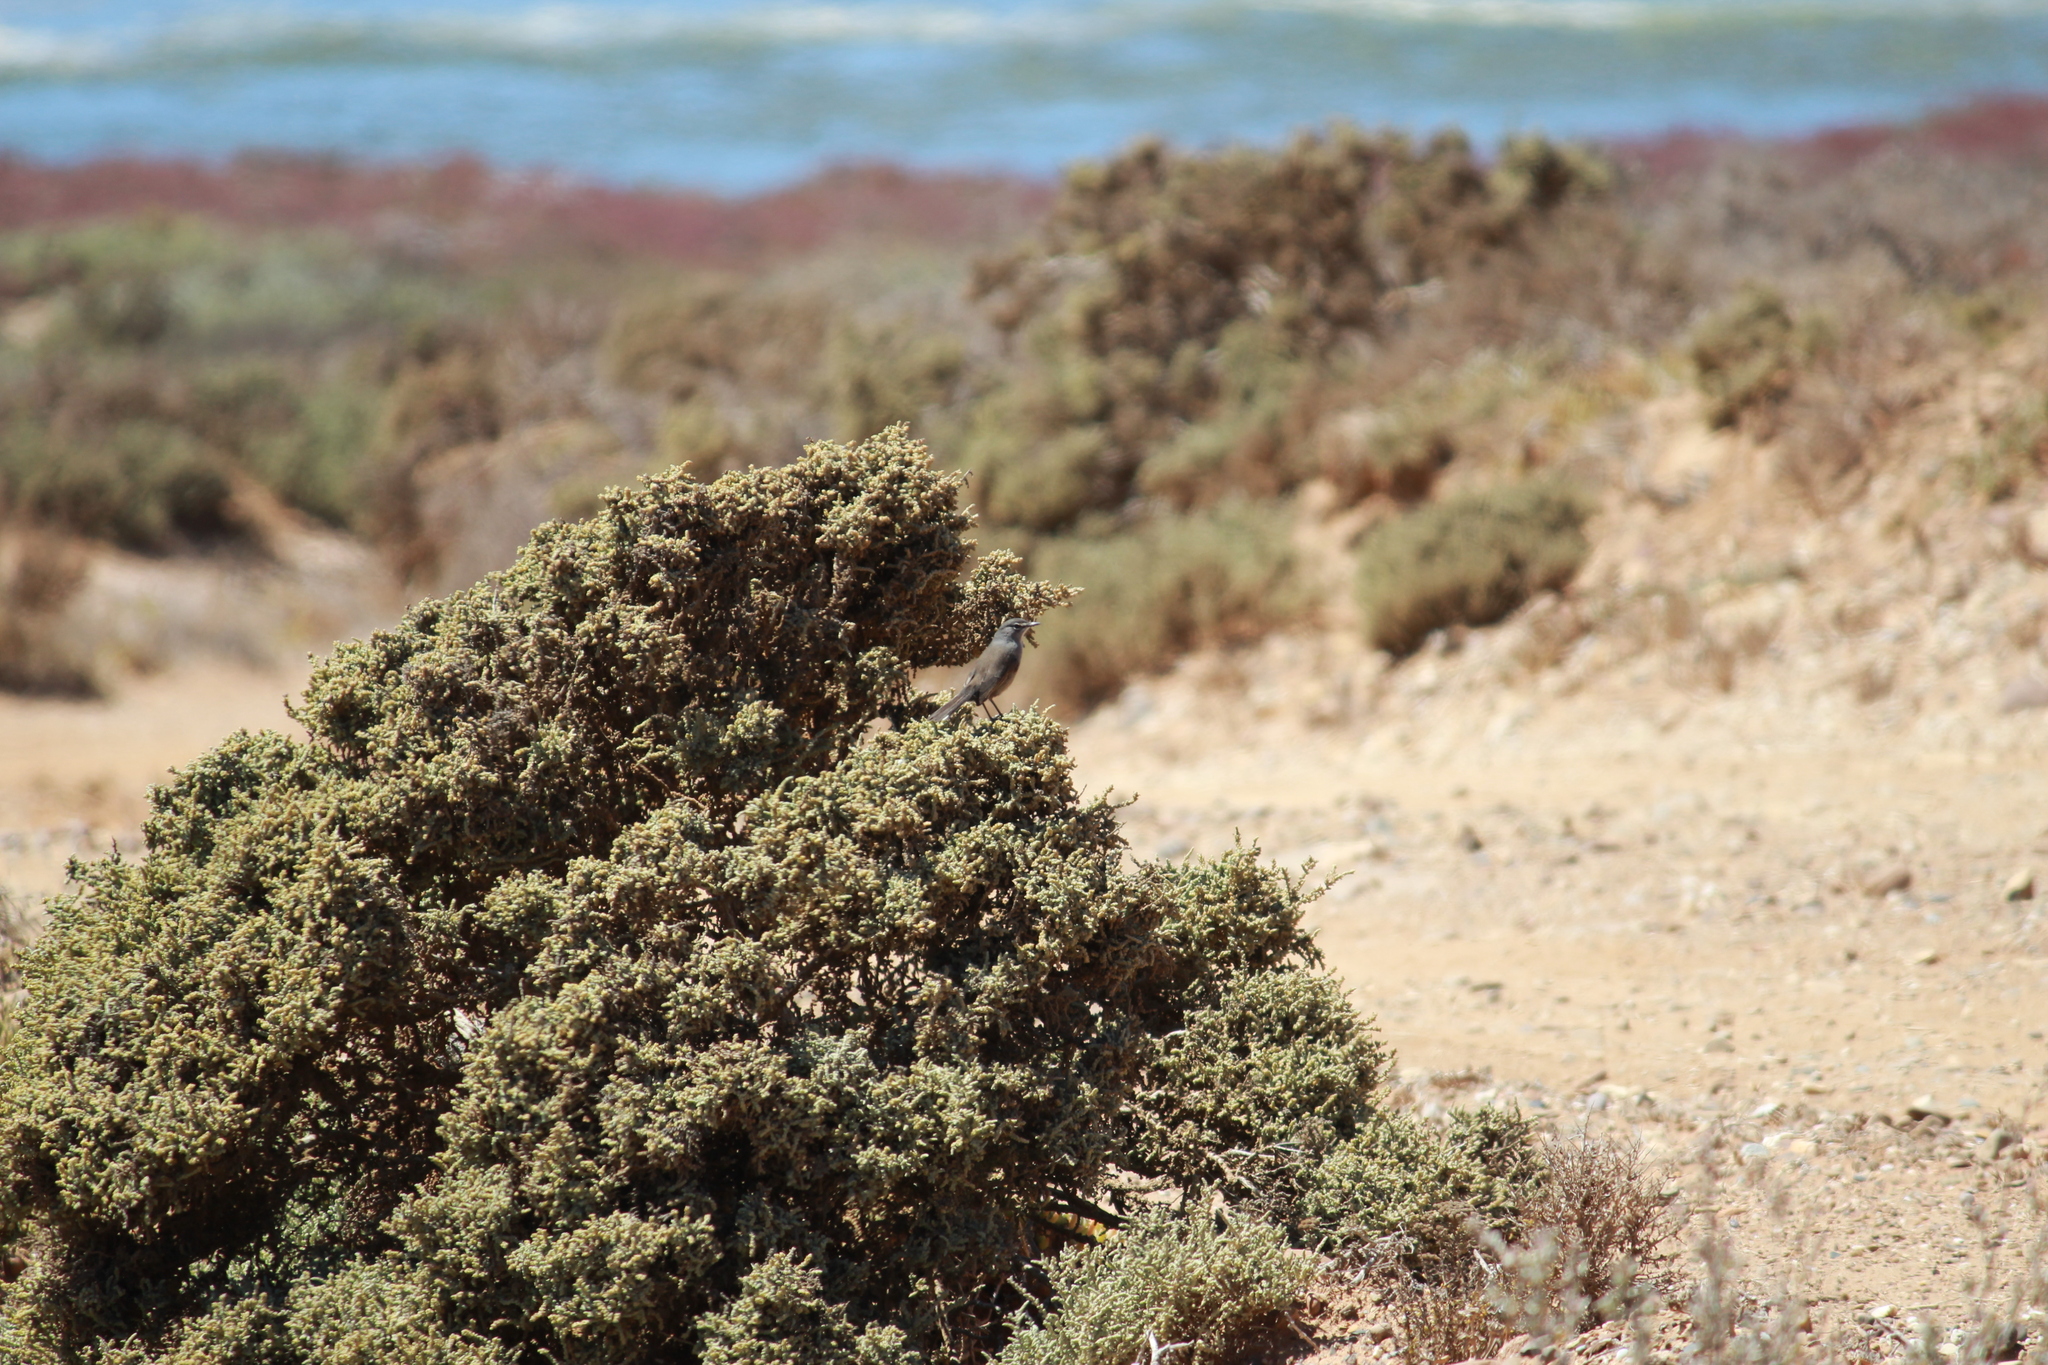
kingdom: Animalia
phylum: Chordata
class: Aves
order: Passeriformes
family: Muscicapidae
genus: Erythropygia
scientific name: Erythropygia coryphoeus
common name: Karoo scrub robin
